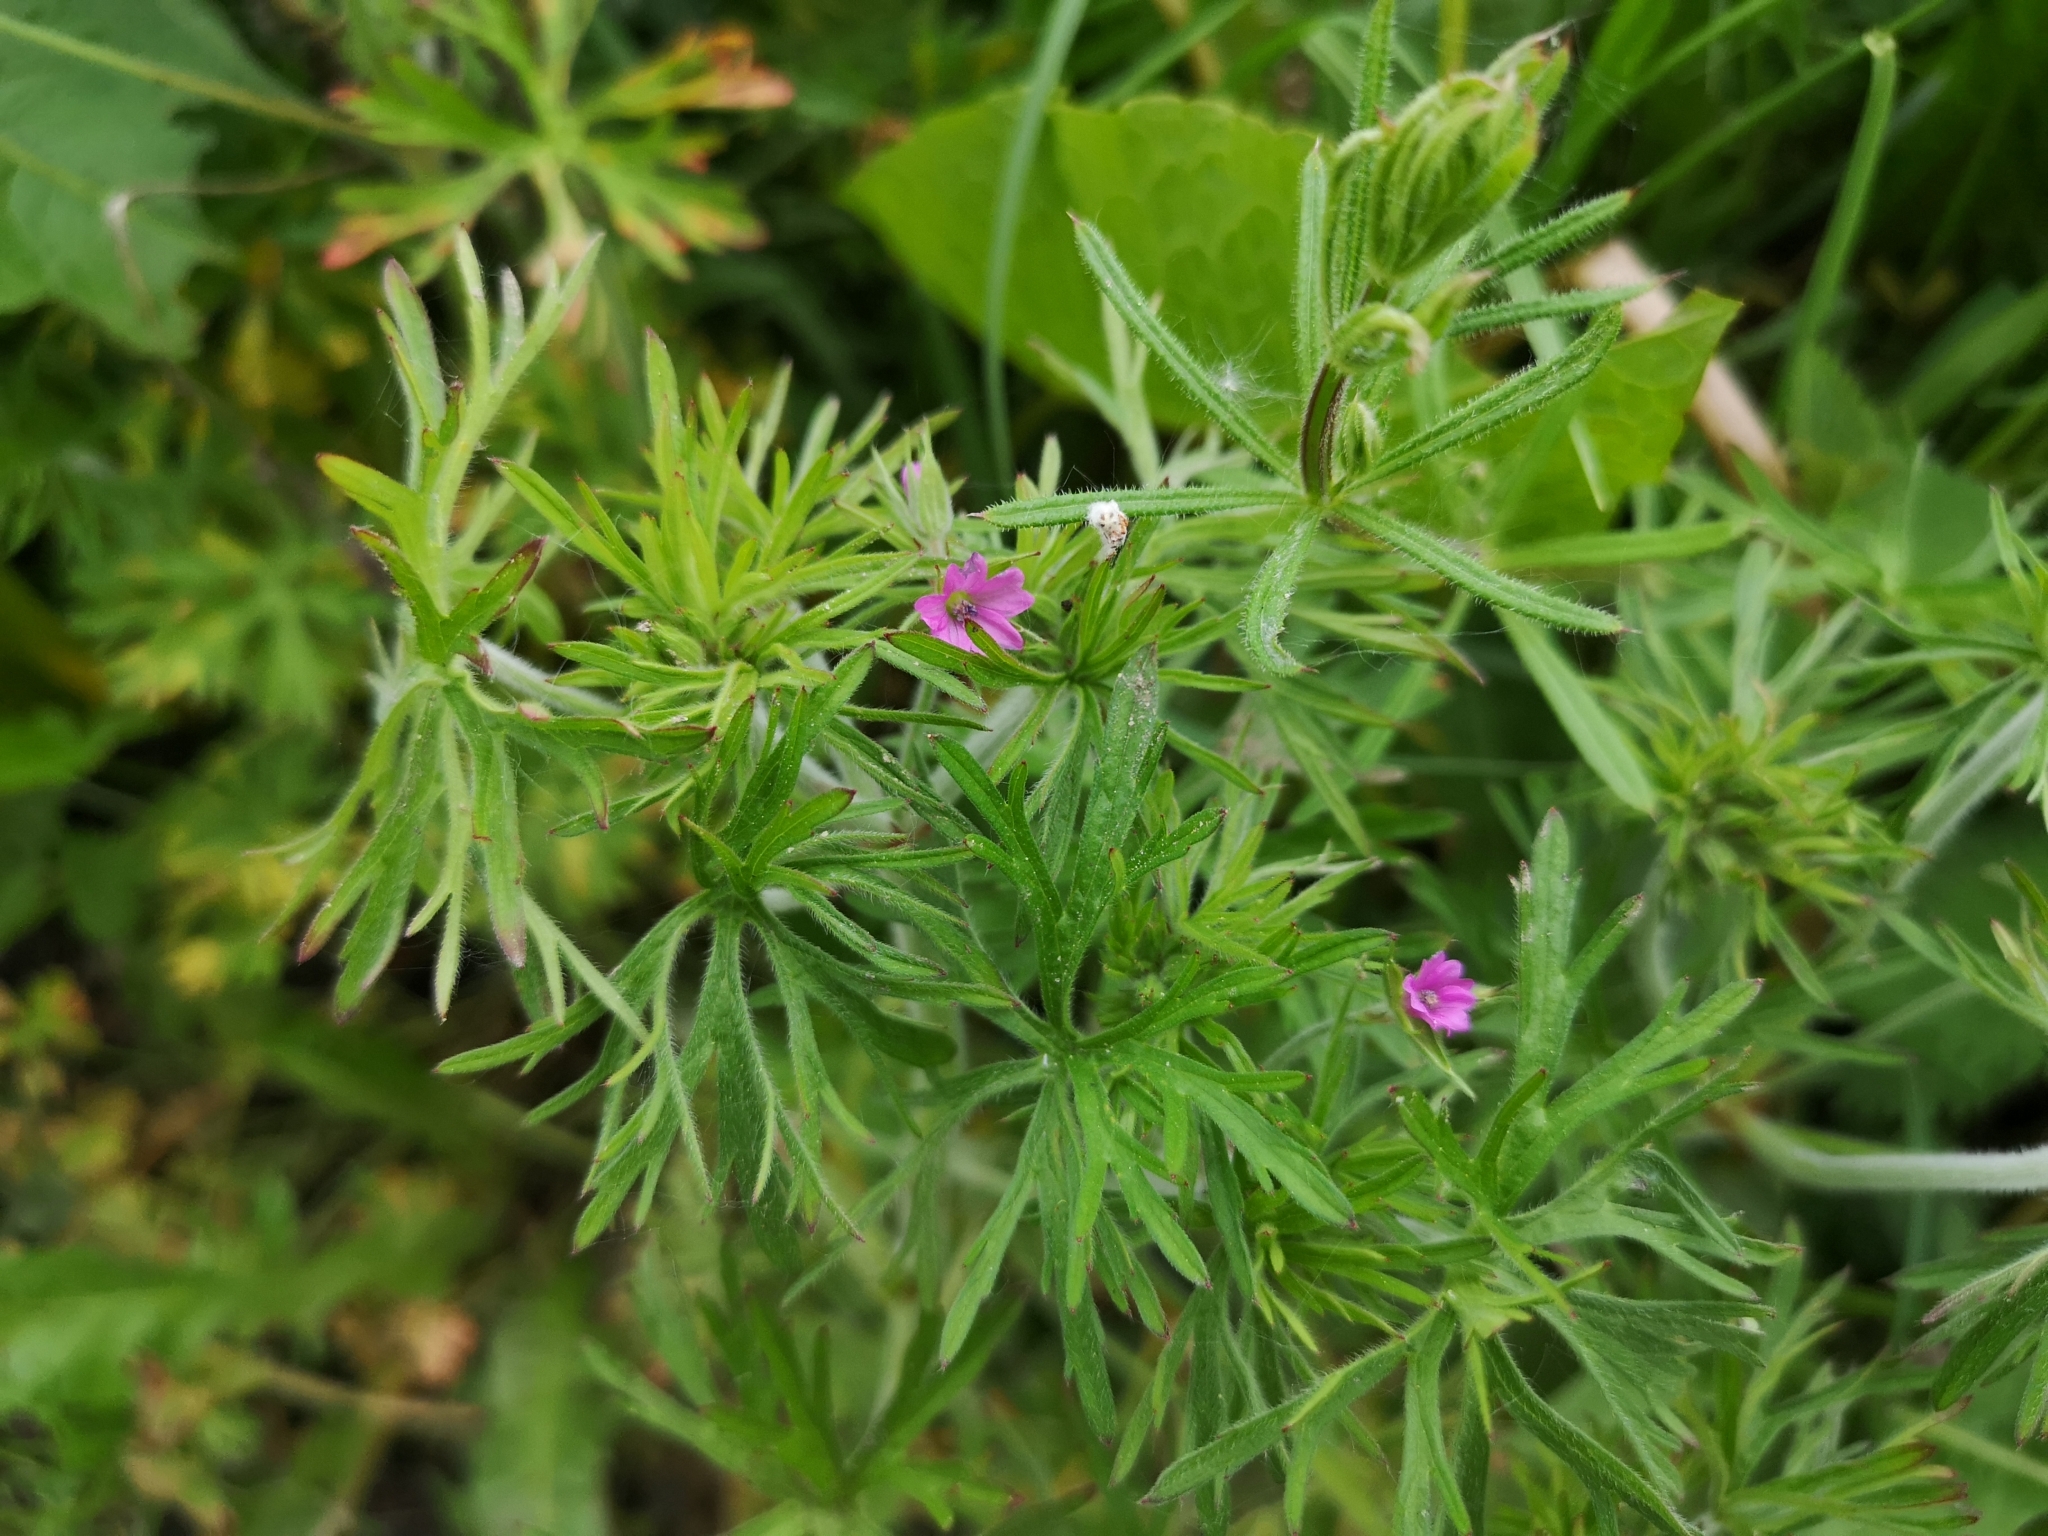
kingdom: Plantae
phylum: Tracheophyta
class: Magnoliopsida
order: Geraniales
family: Geraniaceae
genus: Geranium
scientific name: Geranium dissectum
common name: Cut-leaved crane's-bill
